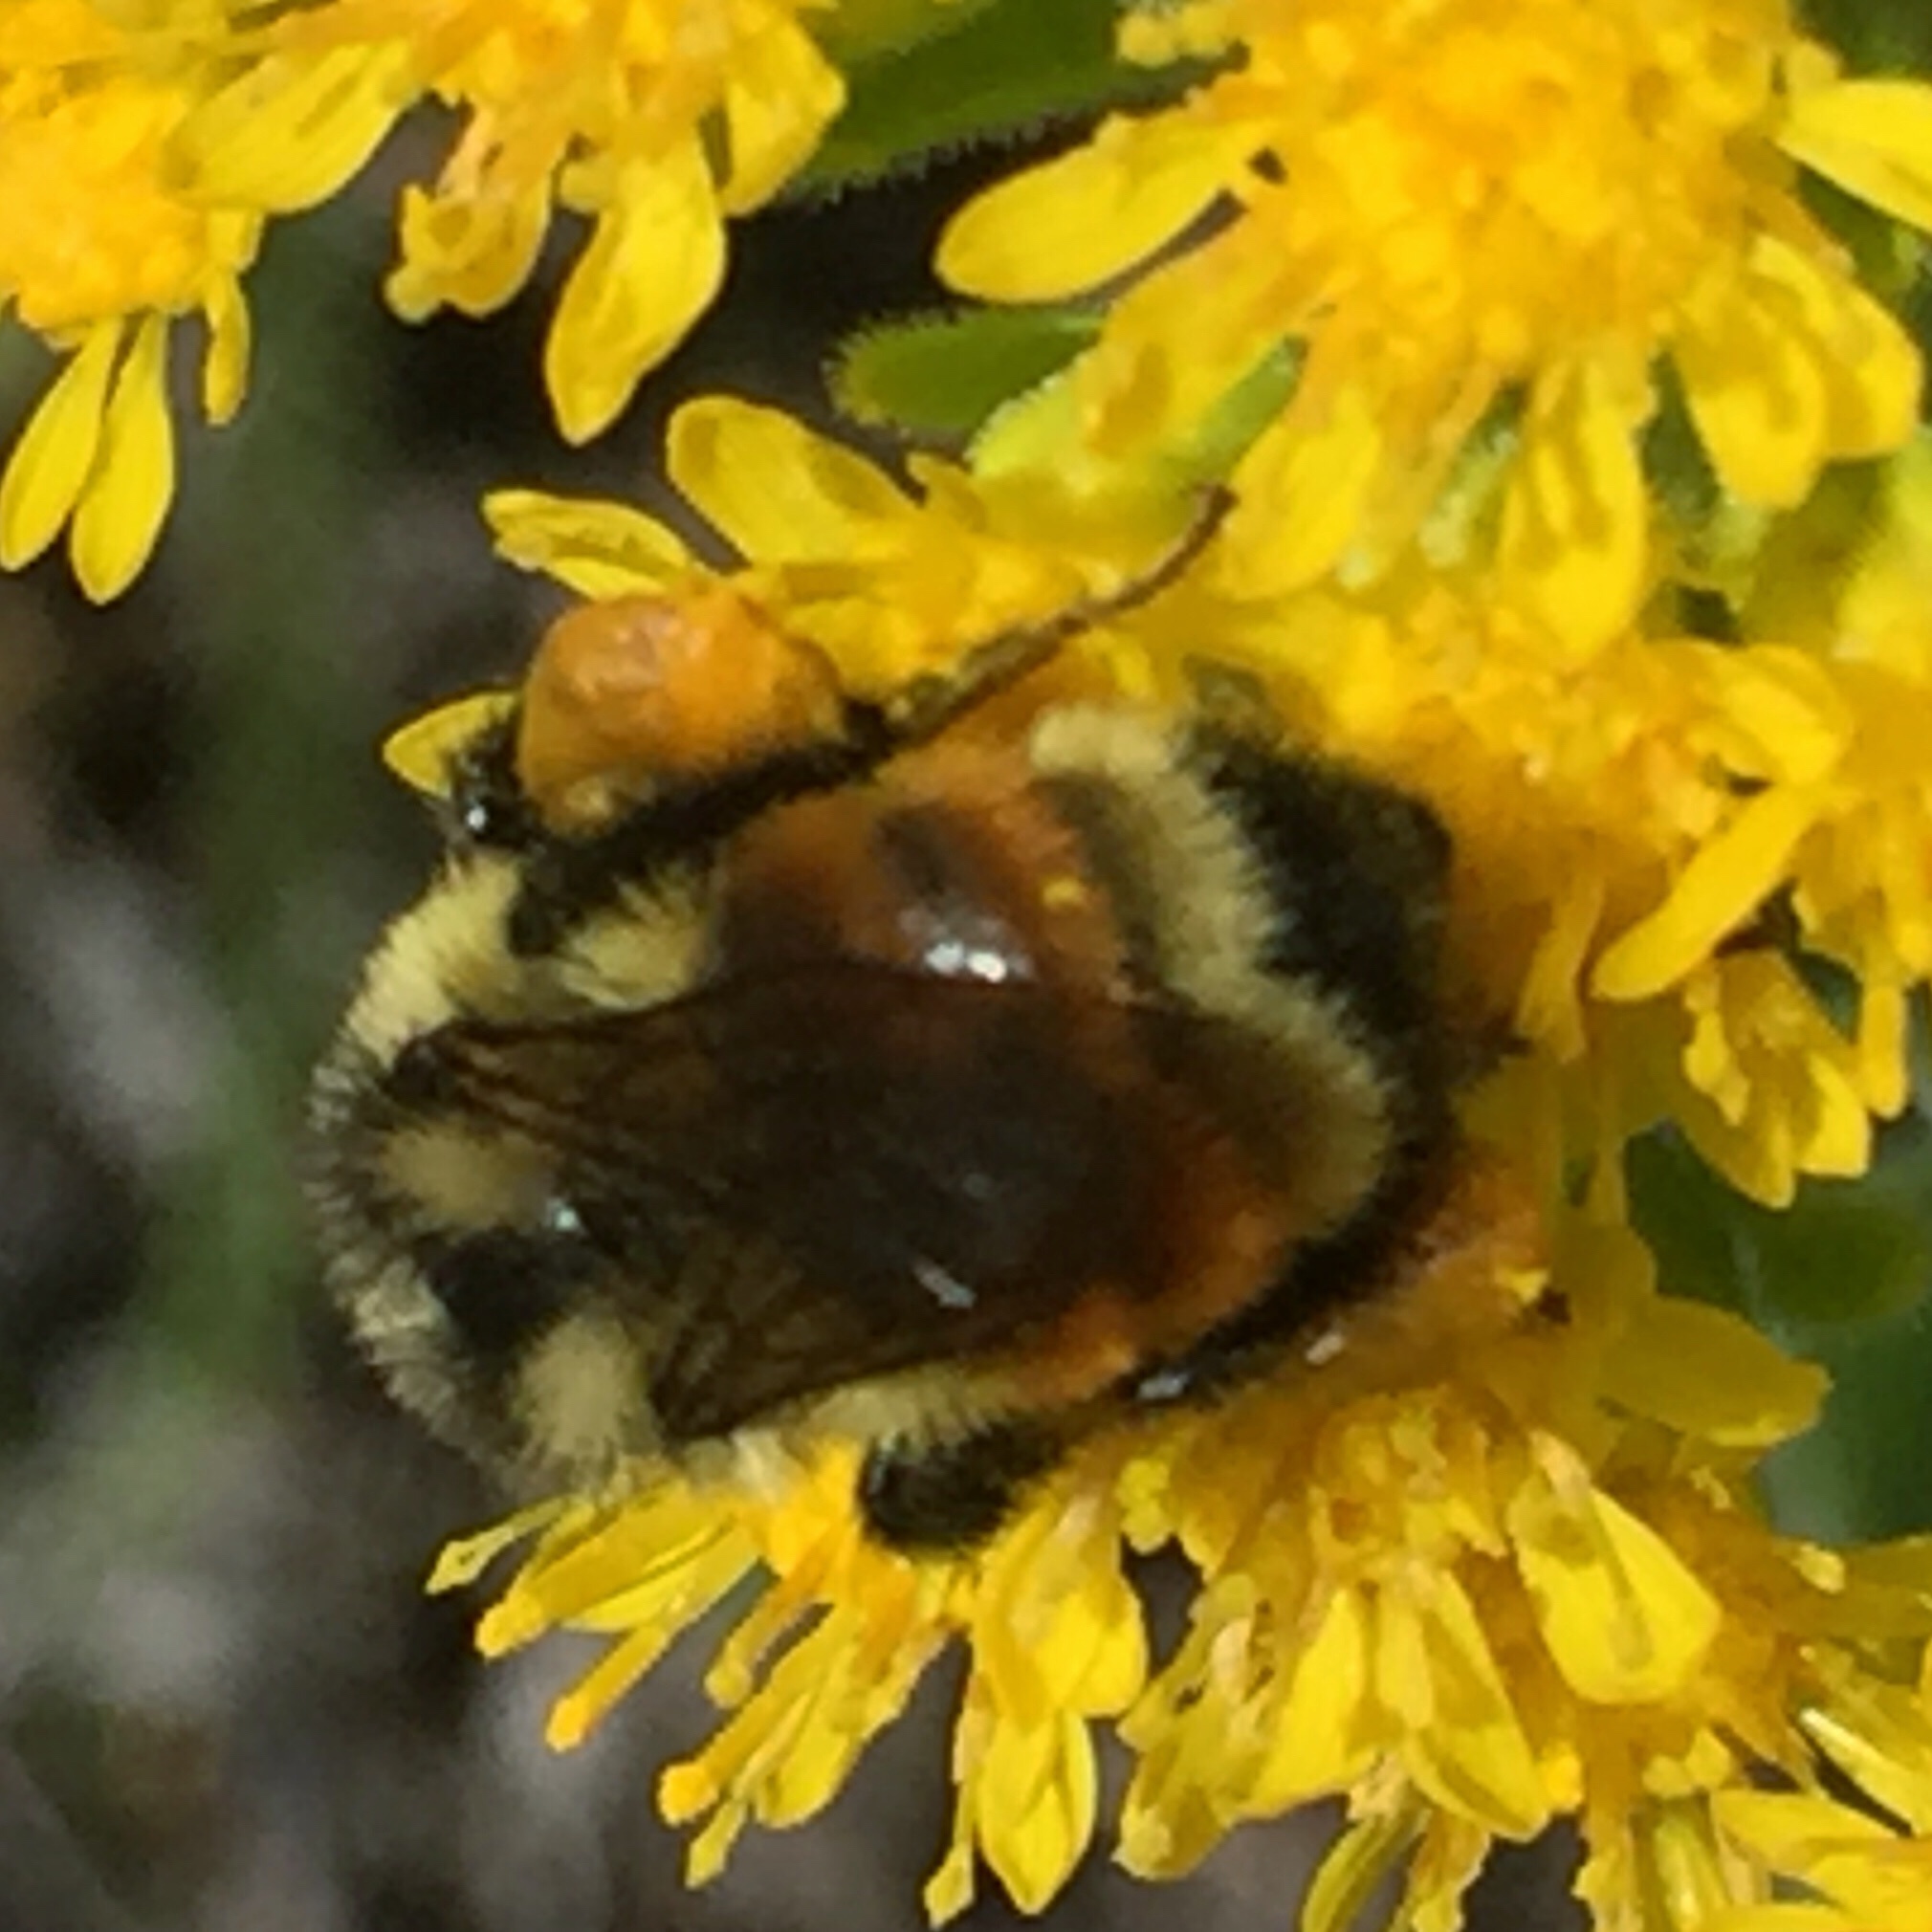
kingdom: Animalia
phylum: Arthropoda
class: Insecta
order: Hymenoptera
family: Apidae
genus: Bombus
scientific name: Bombus ternarius
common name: Tri-colored bumble bee
